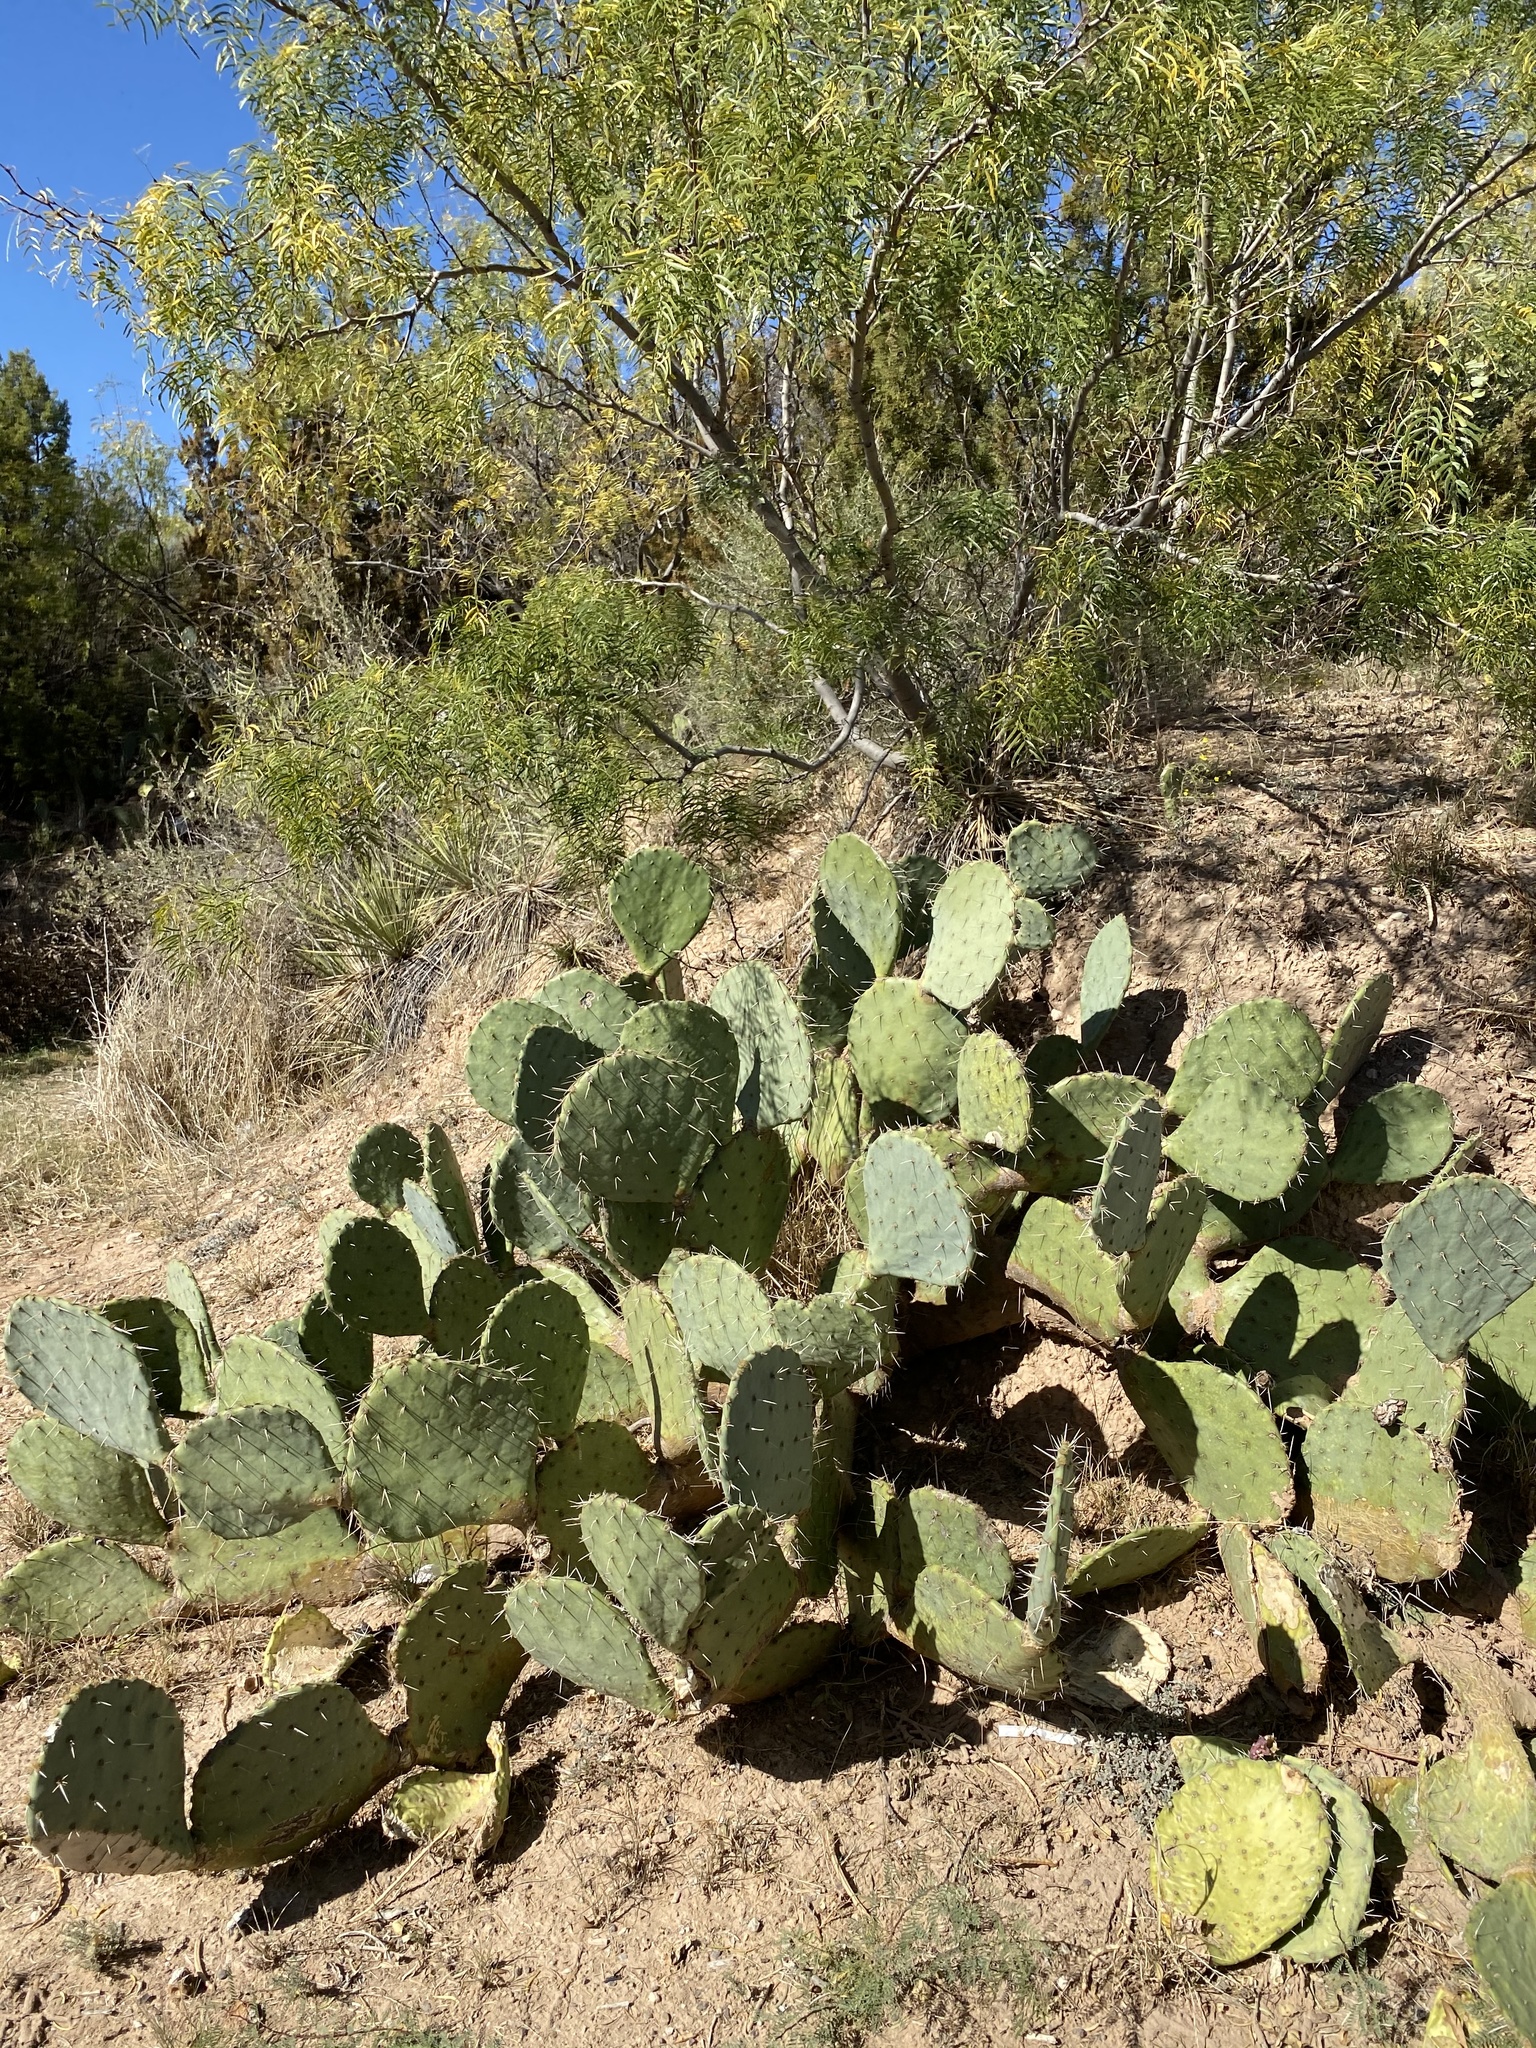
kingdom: Plantae
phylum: Tracheophyta
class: Magnoliopsida
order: Caryophyllales
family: Cactaceae
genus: Opuntia
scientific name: Opuntia engelmannii
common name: Cactus-apple
